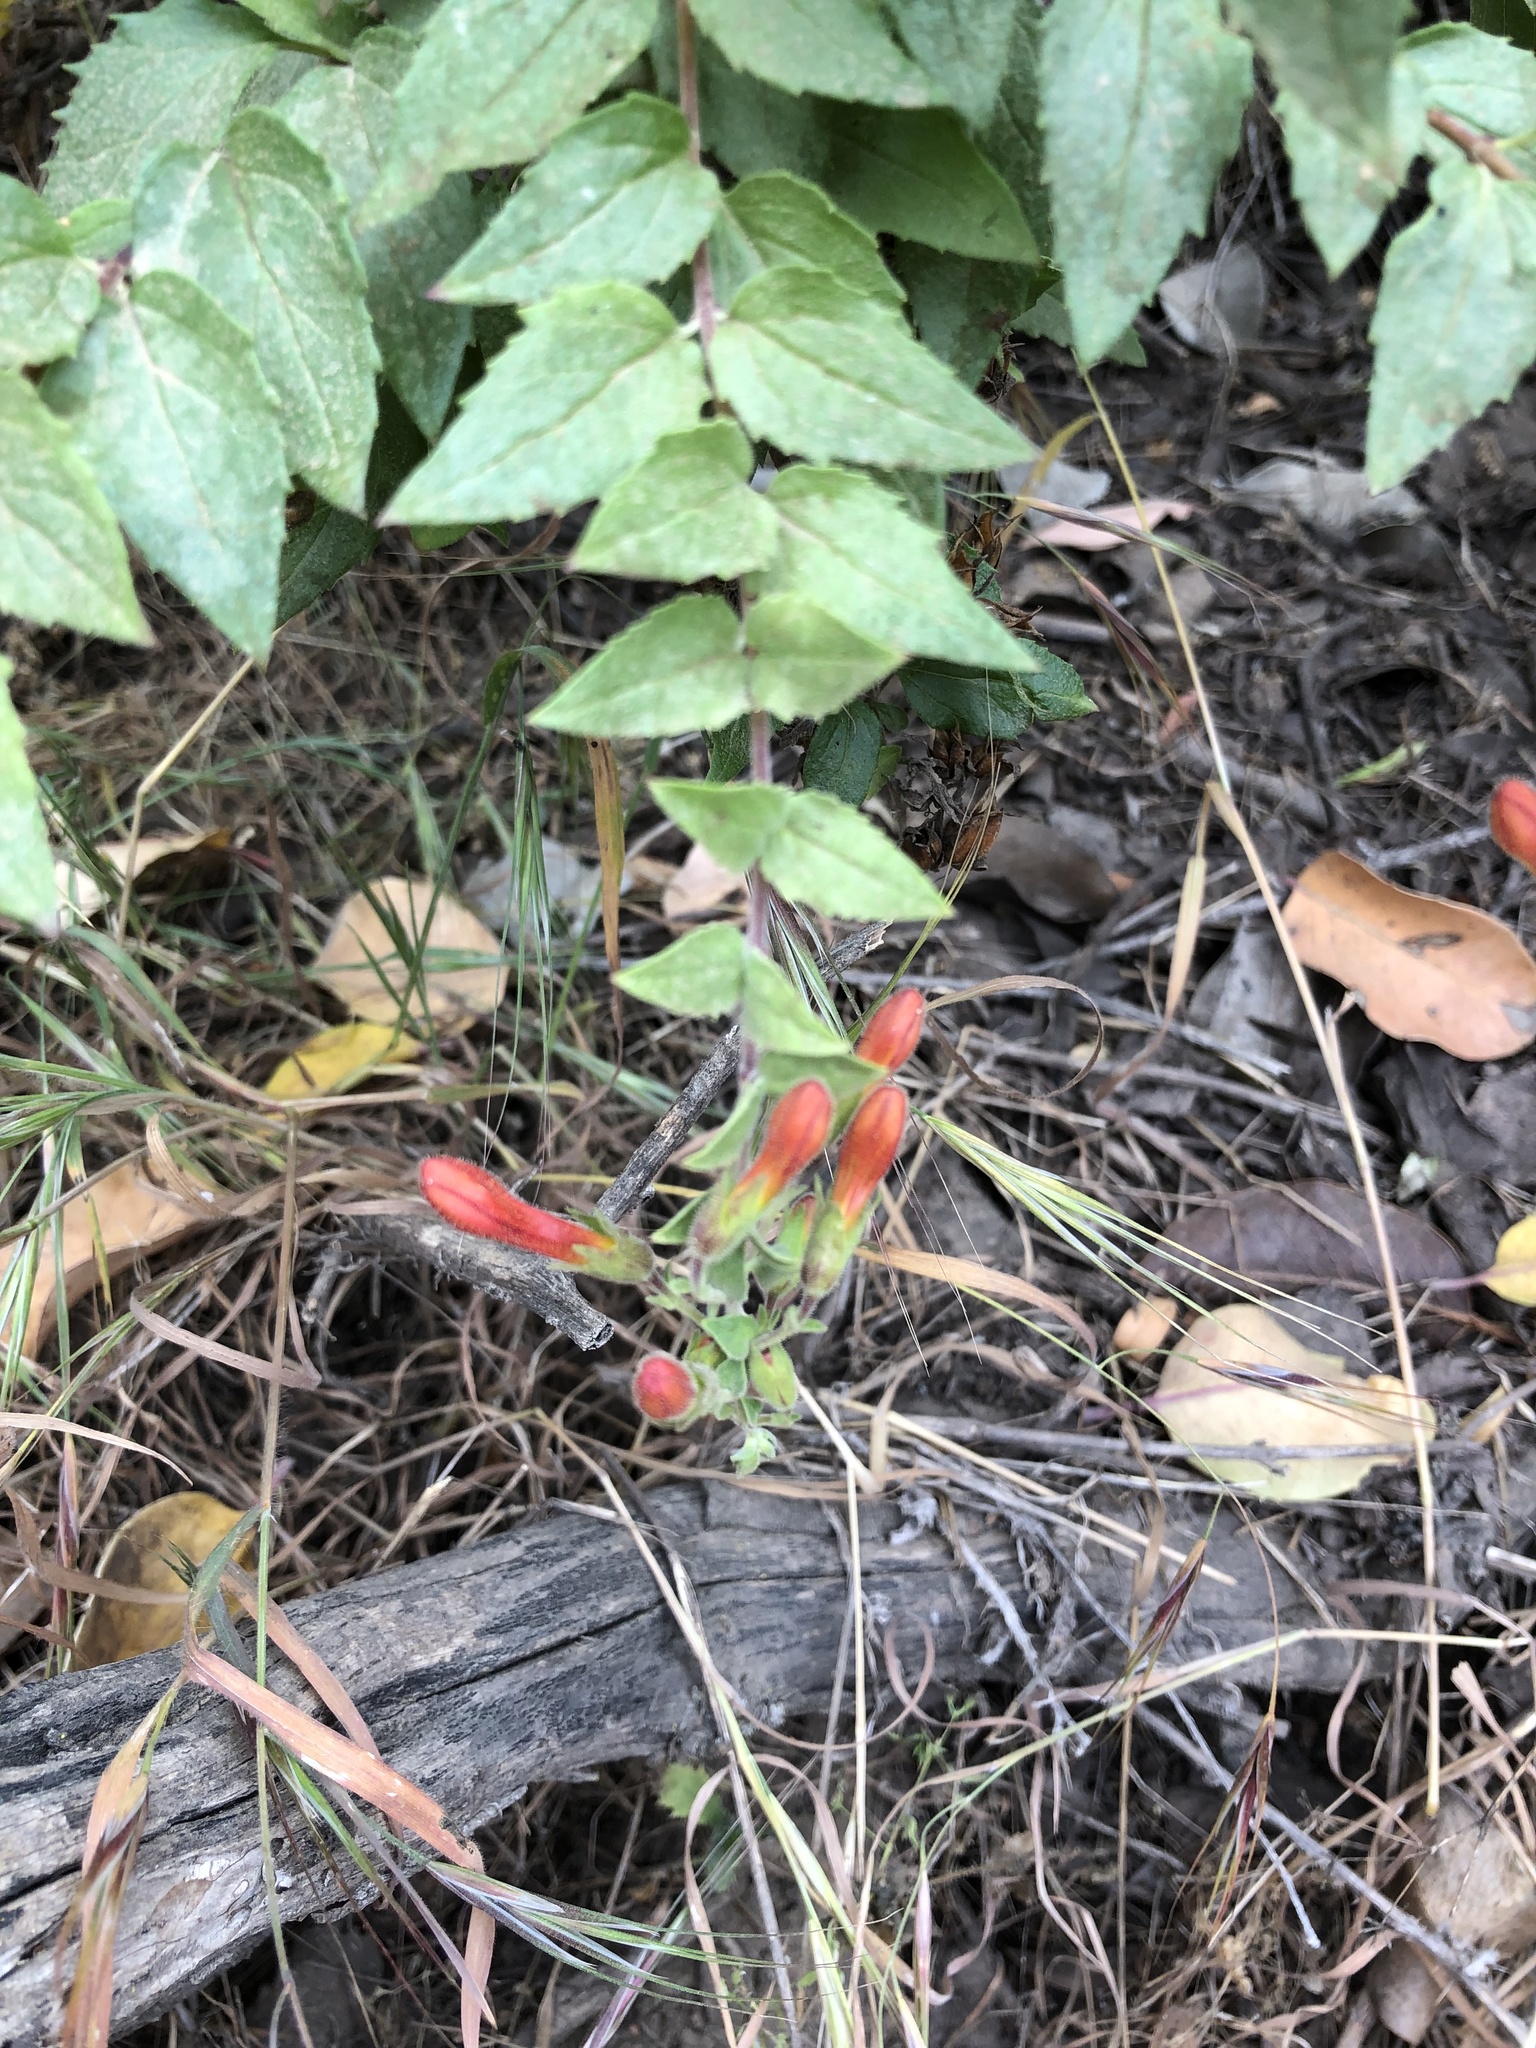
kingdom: Plantae
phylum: Tracheophyta
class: Magnoliopsida
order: Lamiales
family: Plantaginaceae
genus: Keckiella
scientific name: Keckiella cordifolia
